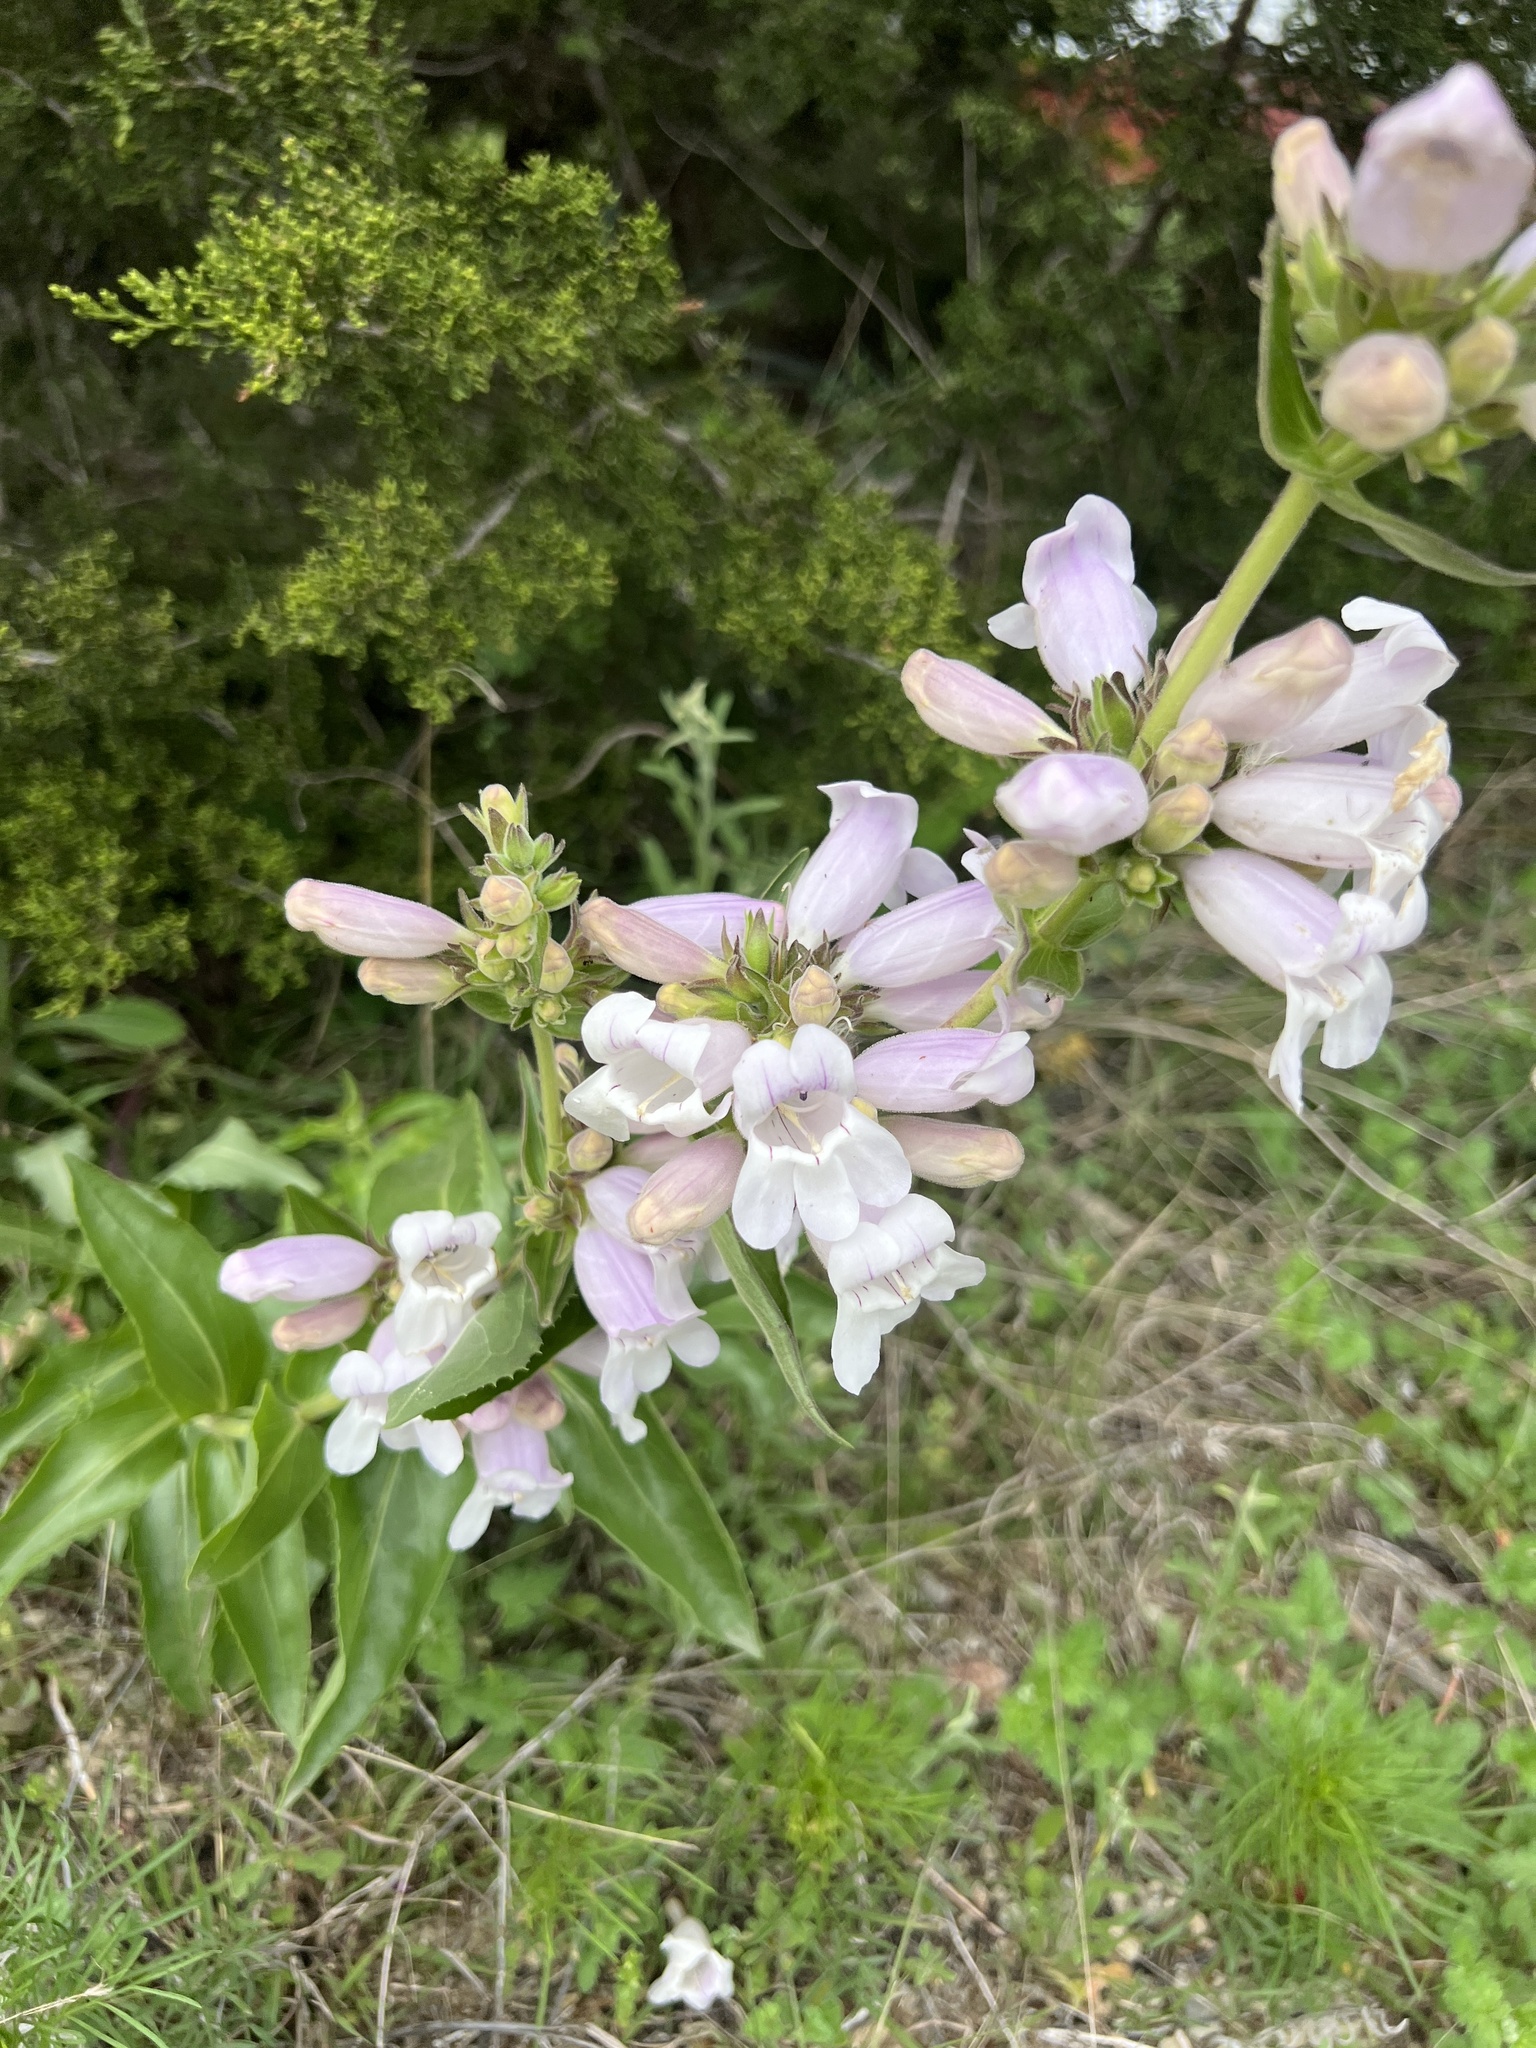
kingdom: Plantae
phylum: Tracheophyta
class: Magnoliopsida
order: Lamiales
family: Plantaginaceae
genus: Penstemon
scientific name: Penstemon cobaea
